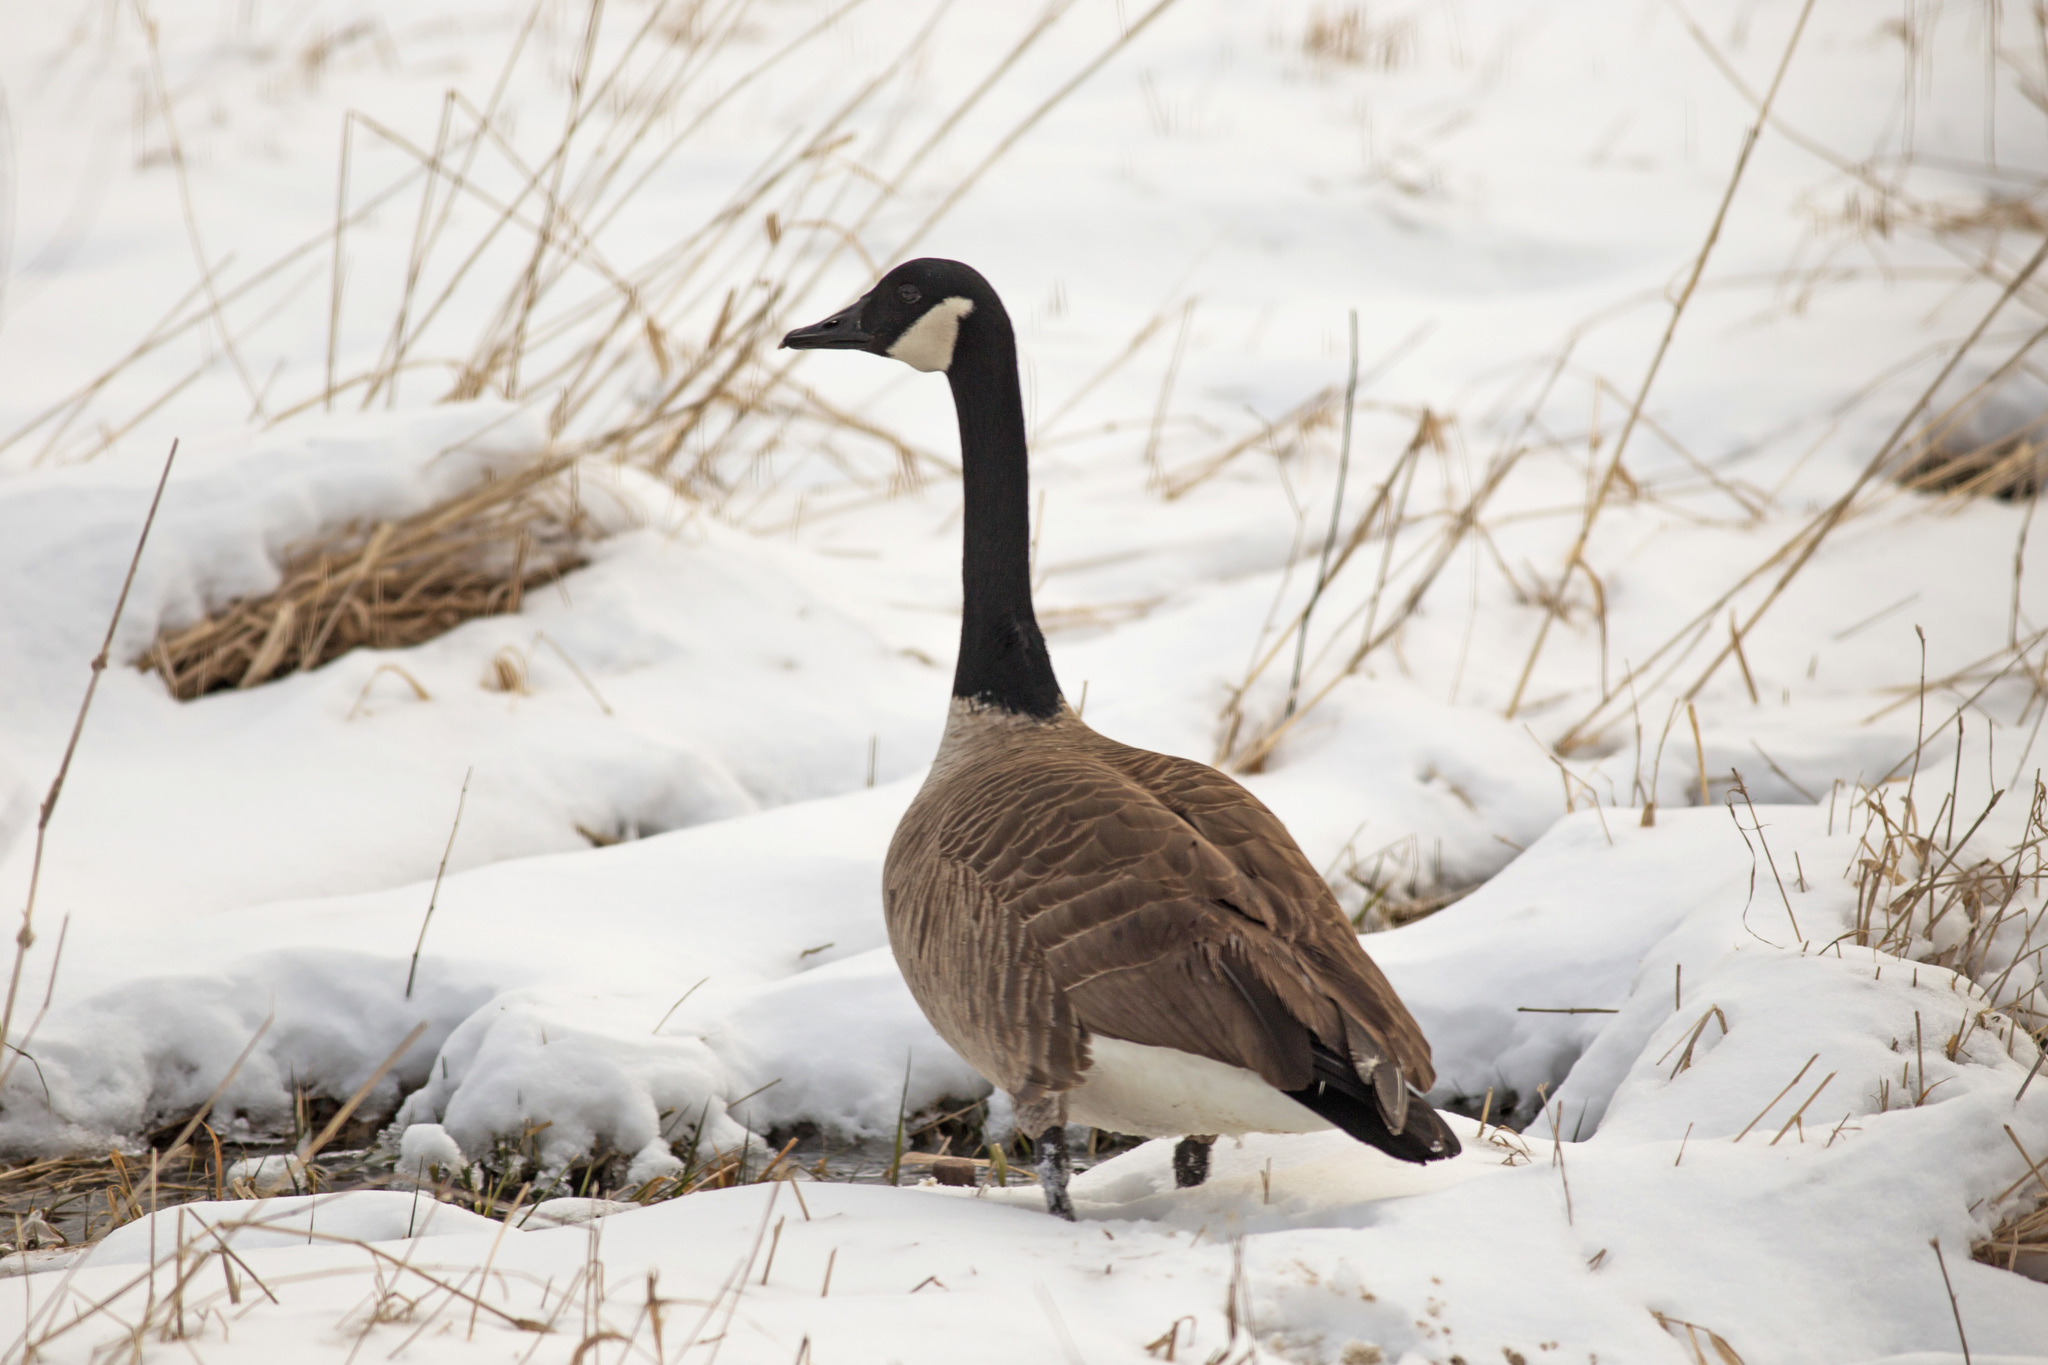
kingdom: Animalia
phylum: Chordata
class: Aves
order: Anseriformes
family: Anatidae
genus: Branta
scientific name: Branta canadensis
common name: Canada goose
